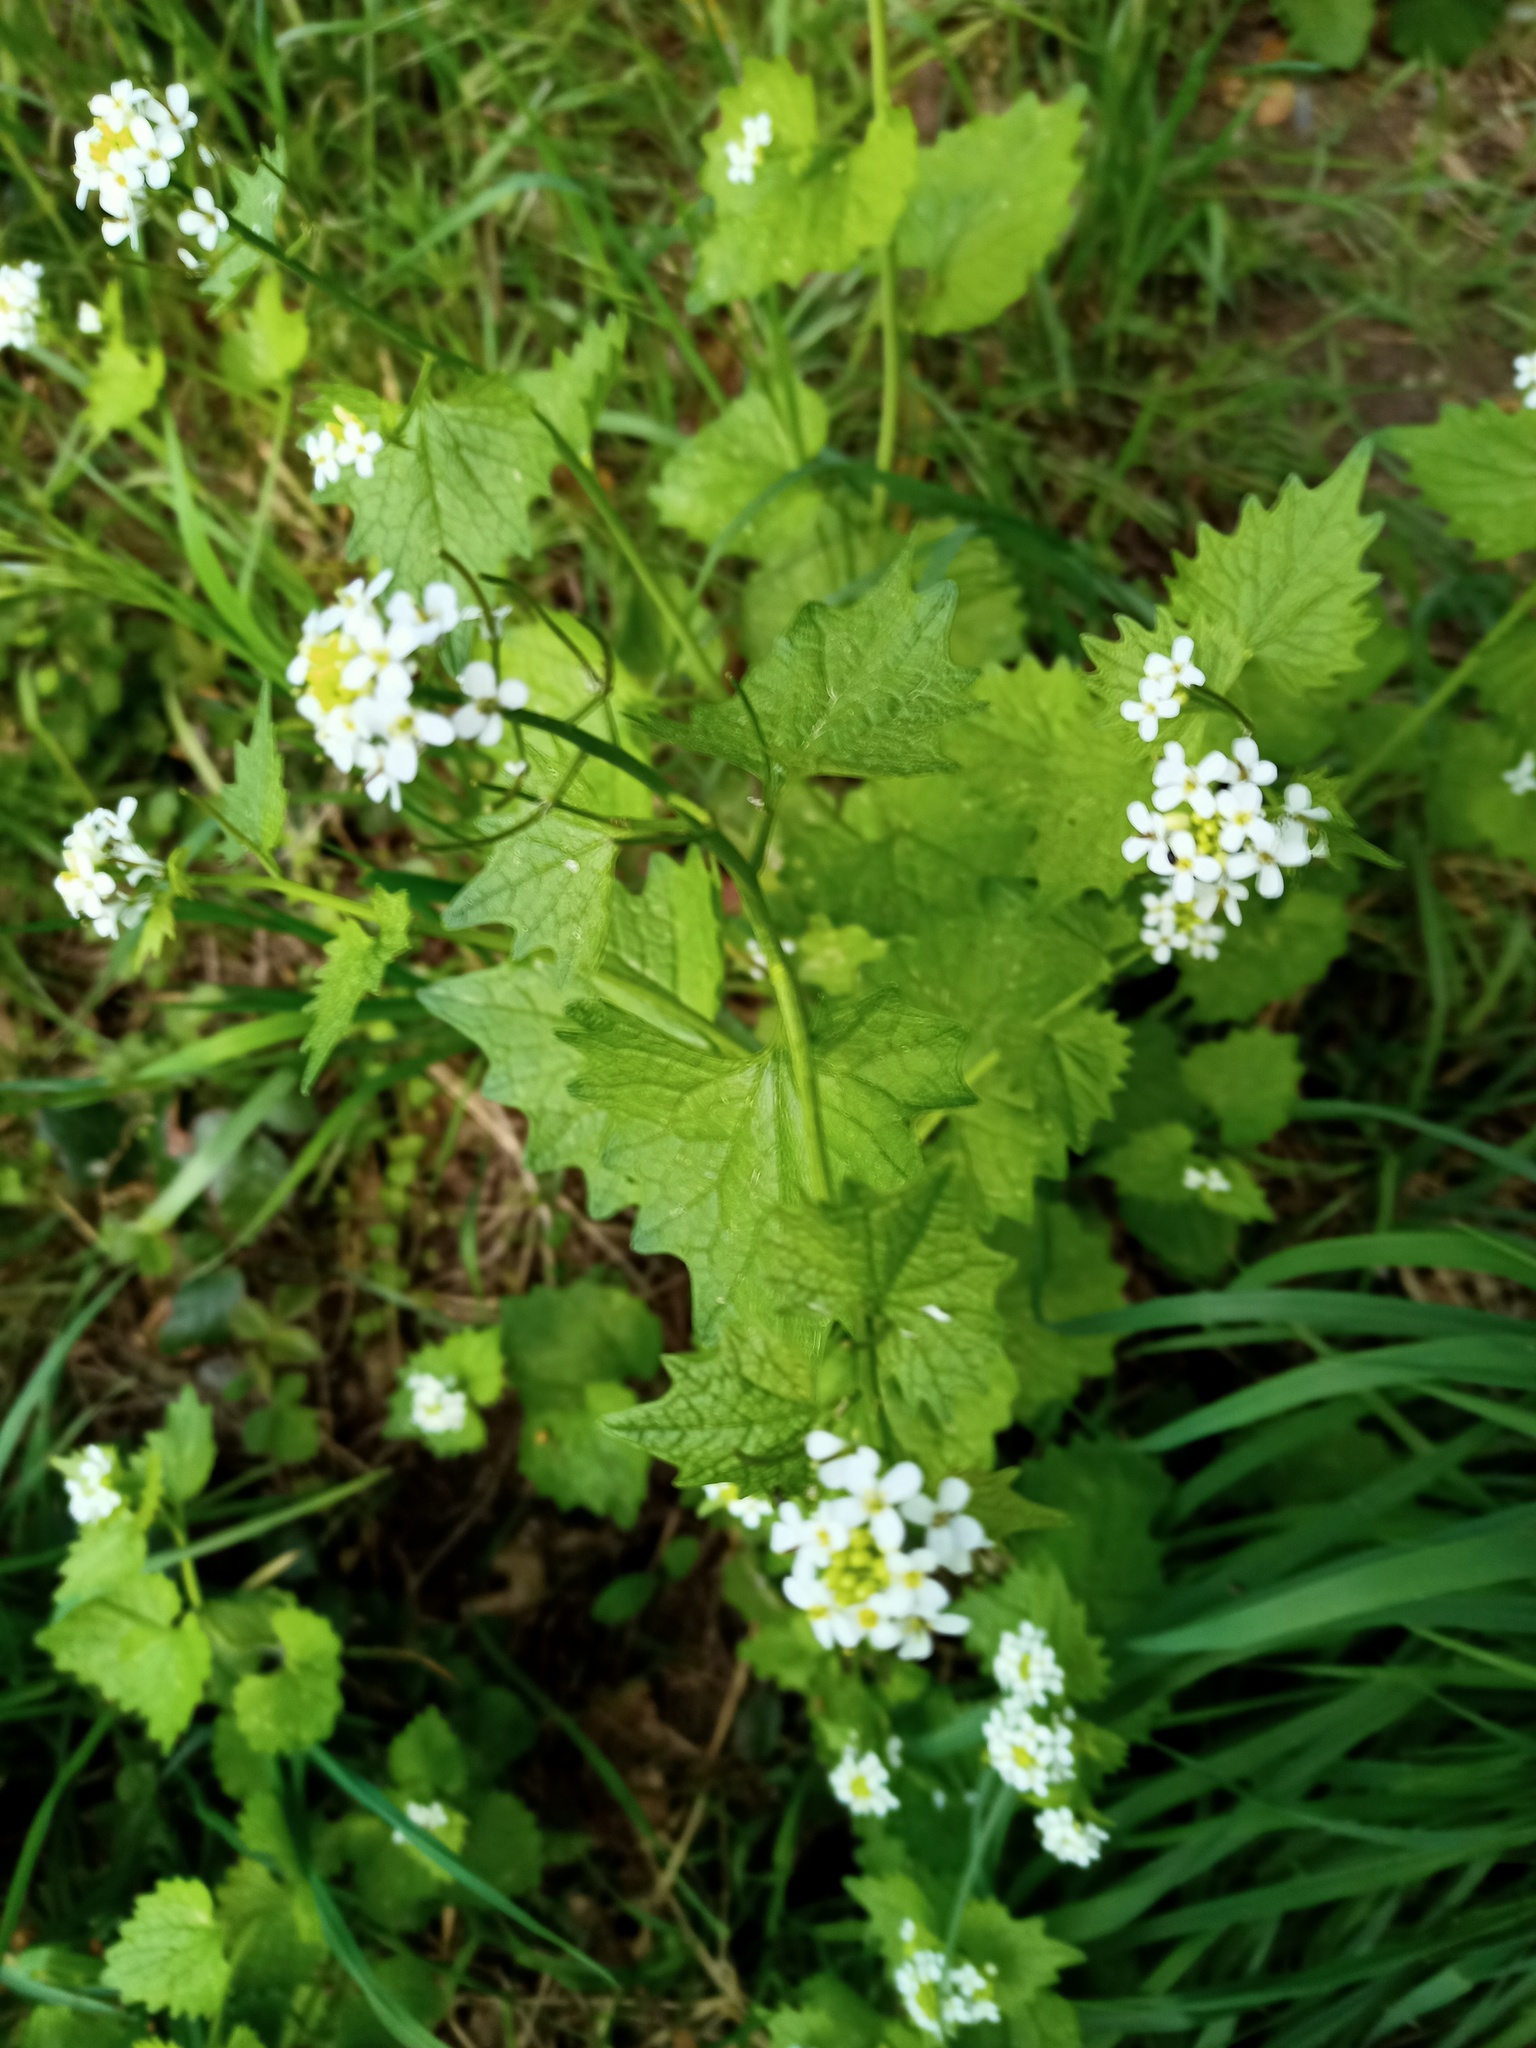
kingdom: Plantae
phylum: Tracheophyta
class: Magnoliopsida
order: Brassicales
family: Brassicaceae
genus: Alliaria
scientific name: Alliaria petiolata
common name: Garlic mustard
